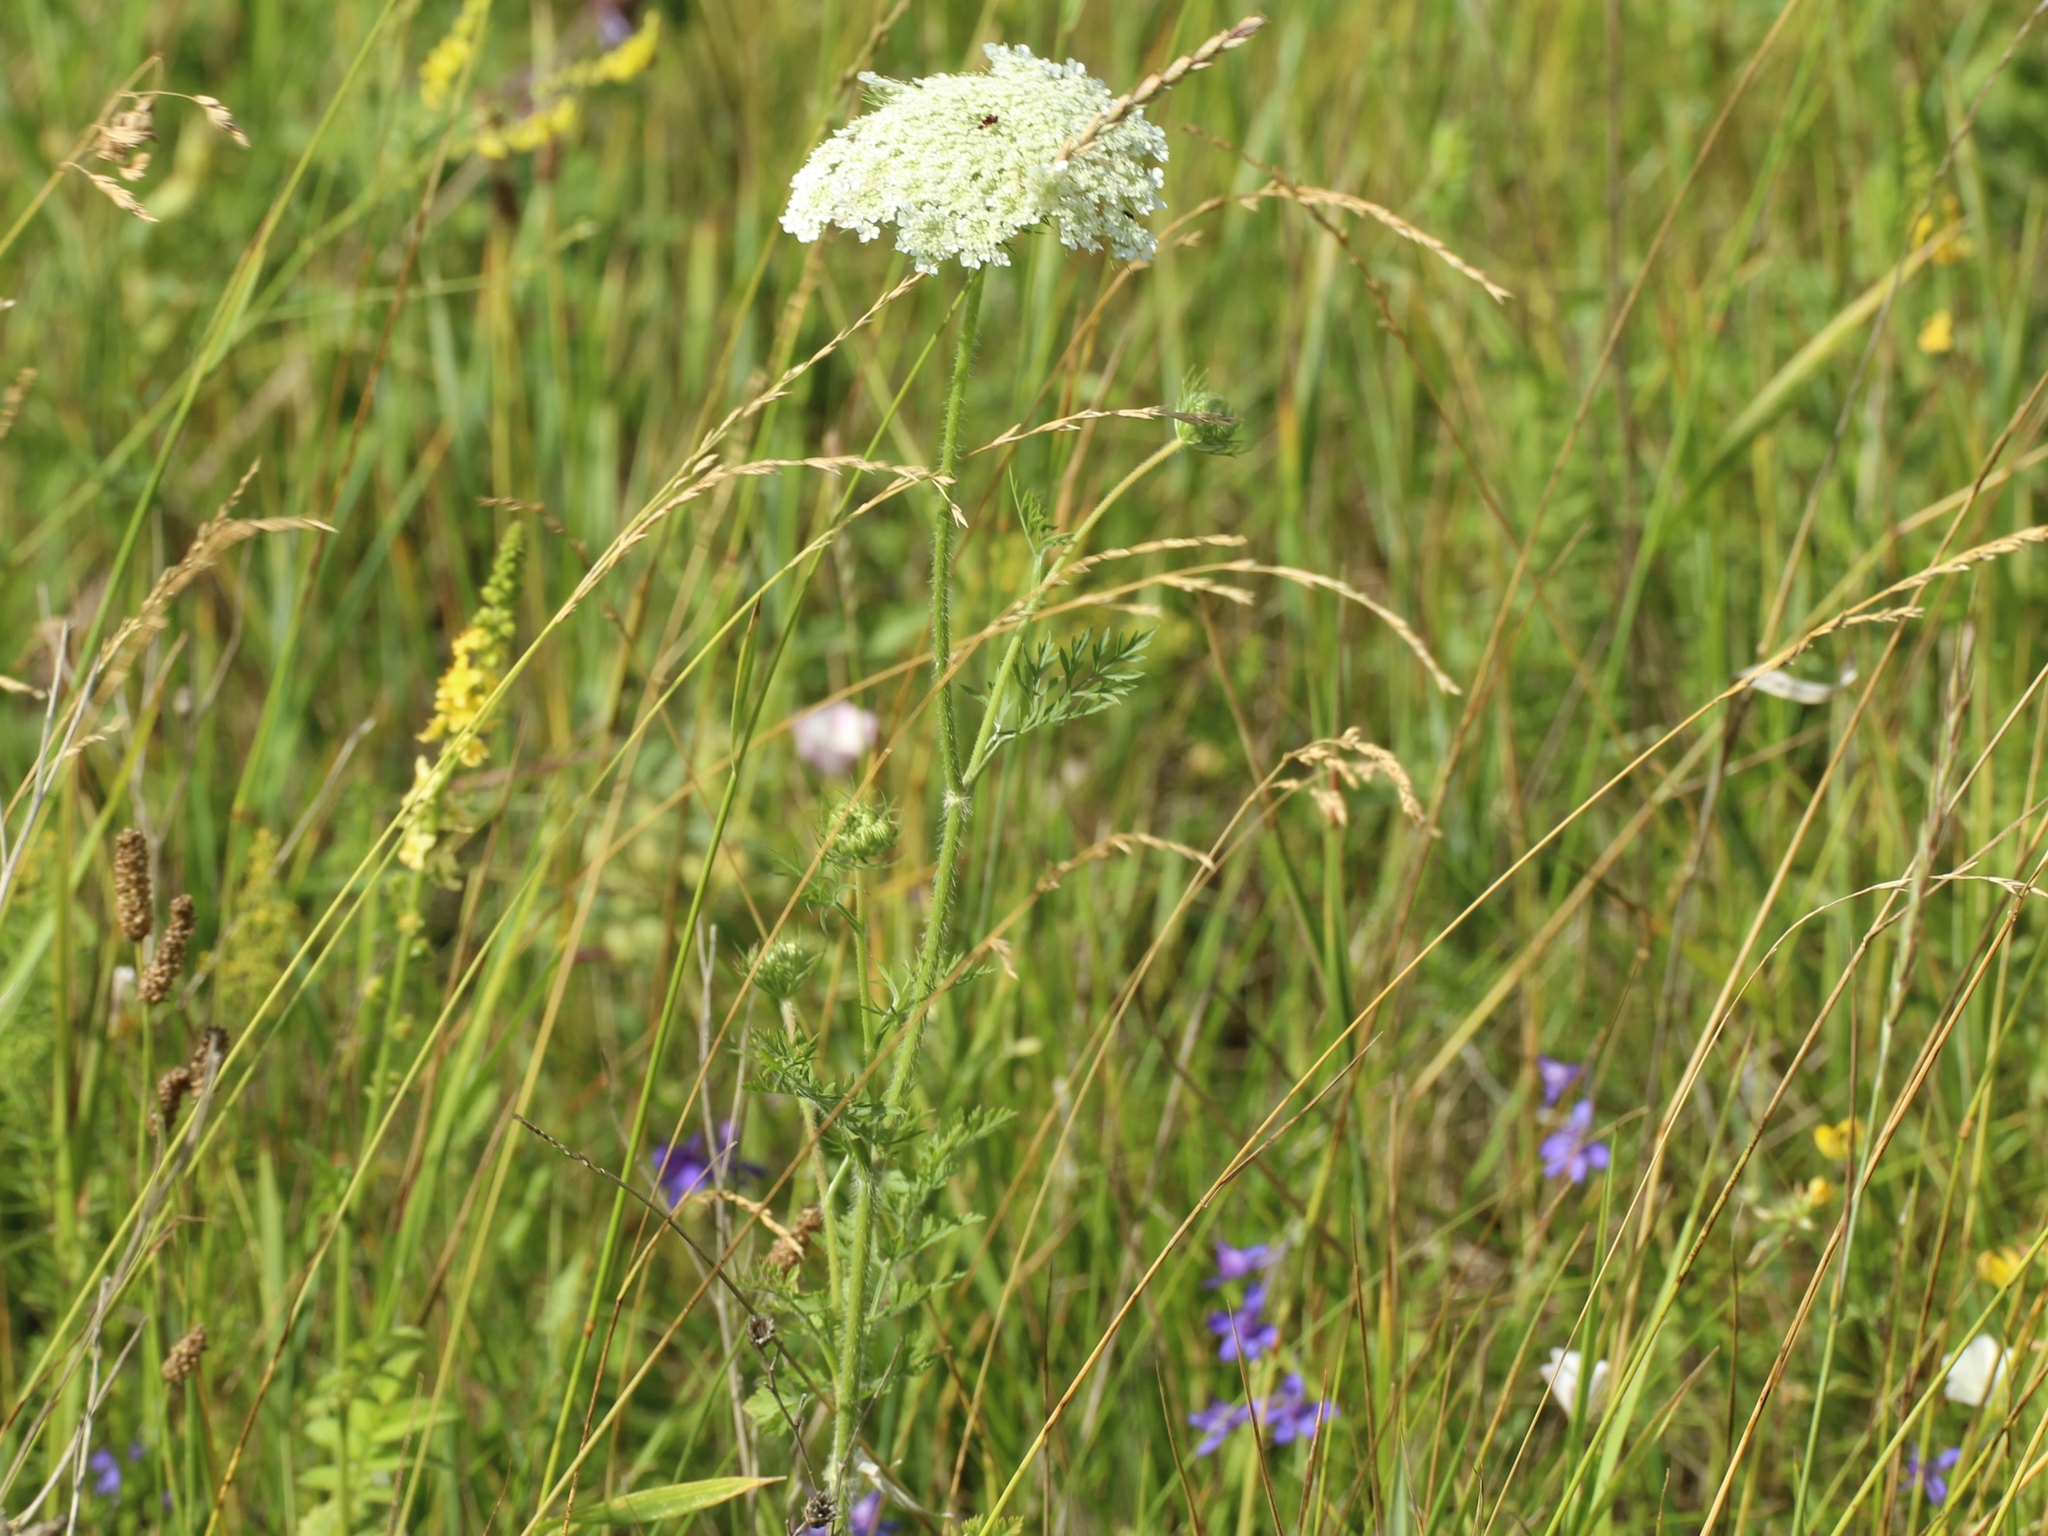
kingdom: Plantae
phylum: Tracheophyta
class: Magnoliopsida
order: Apiales
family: Apiaceae
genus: Daucus
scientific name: Daucus carota
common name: Wild carrot
